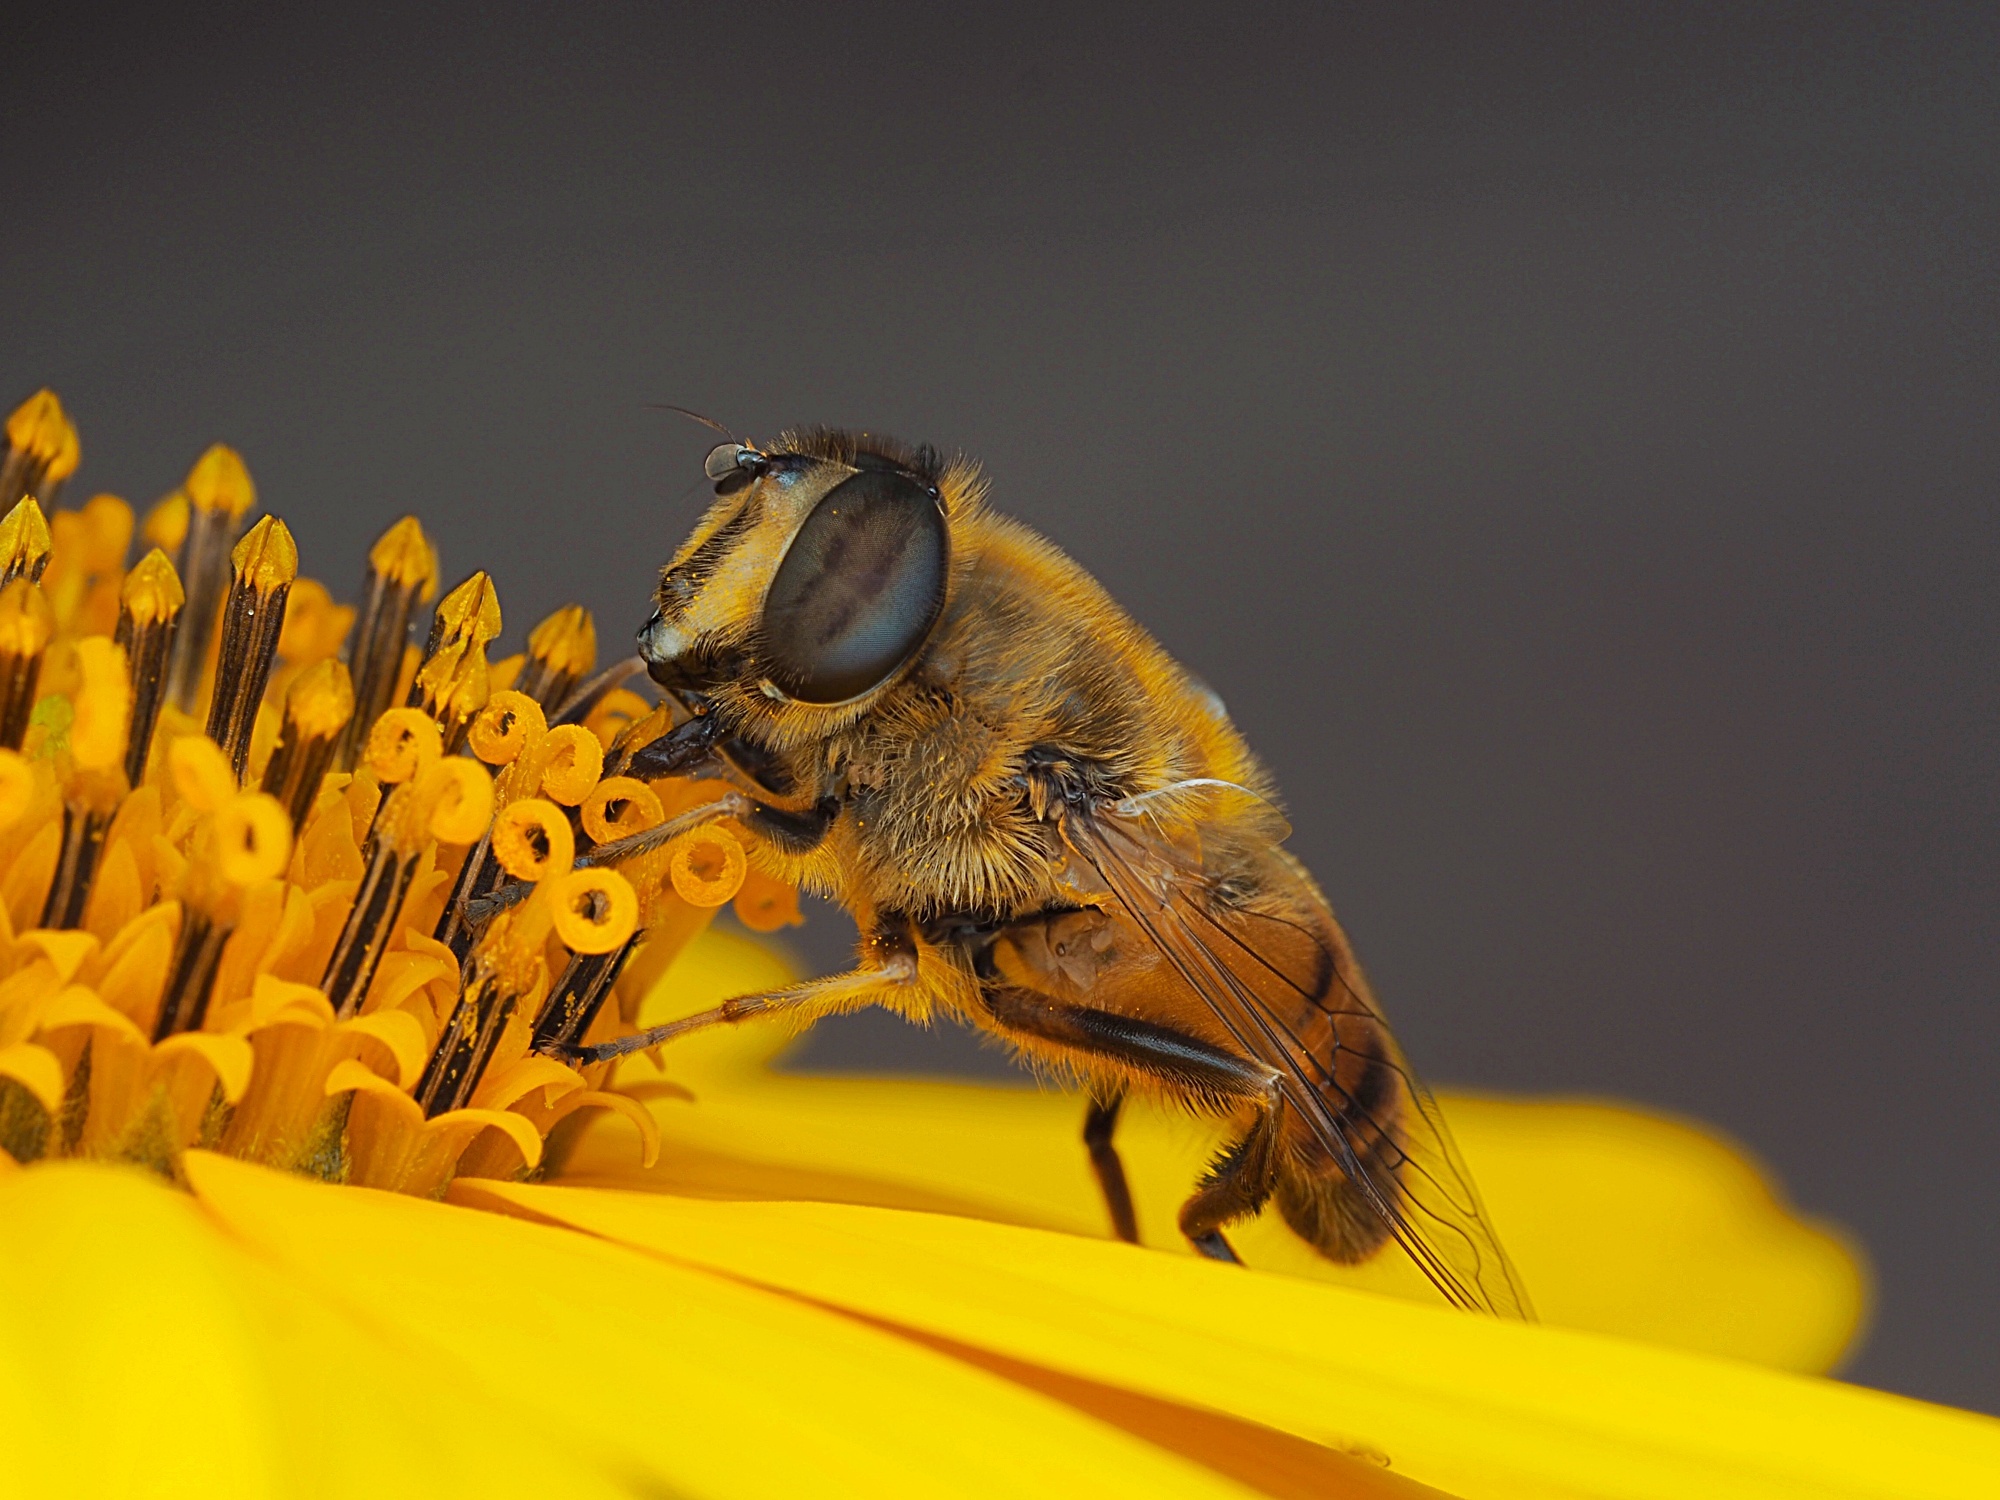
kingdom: Animalia
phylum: Arthropoda
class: Insecta
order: Diptera
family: Syrphidae
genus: Eristalis
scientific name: Eristalis tenax
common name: Drone fly
